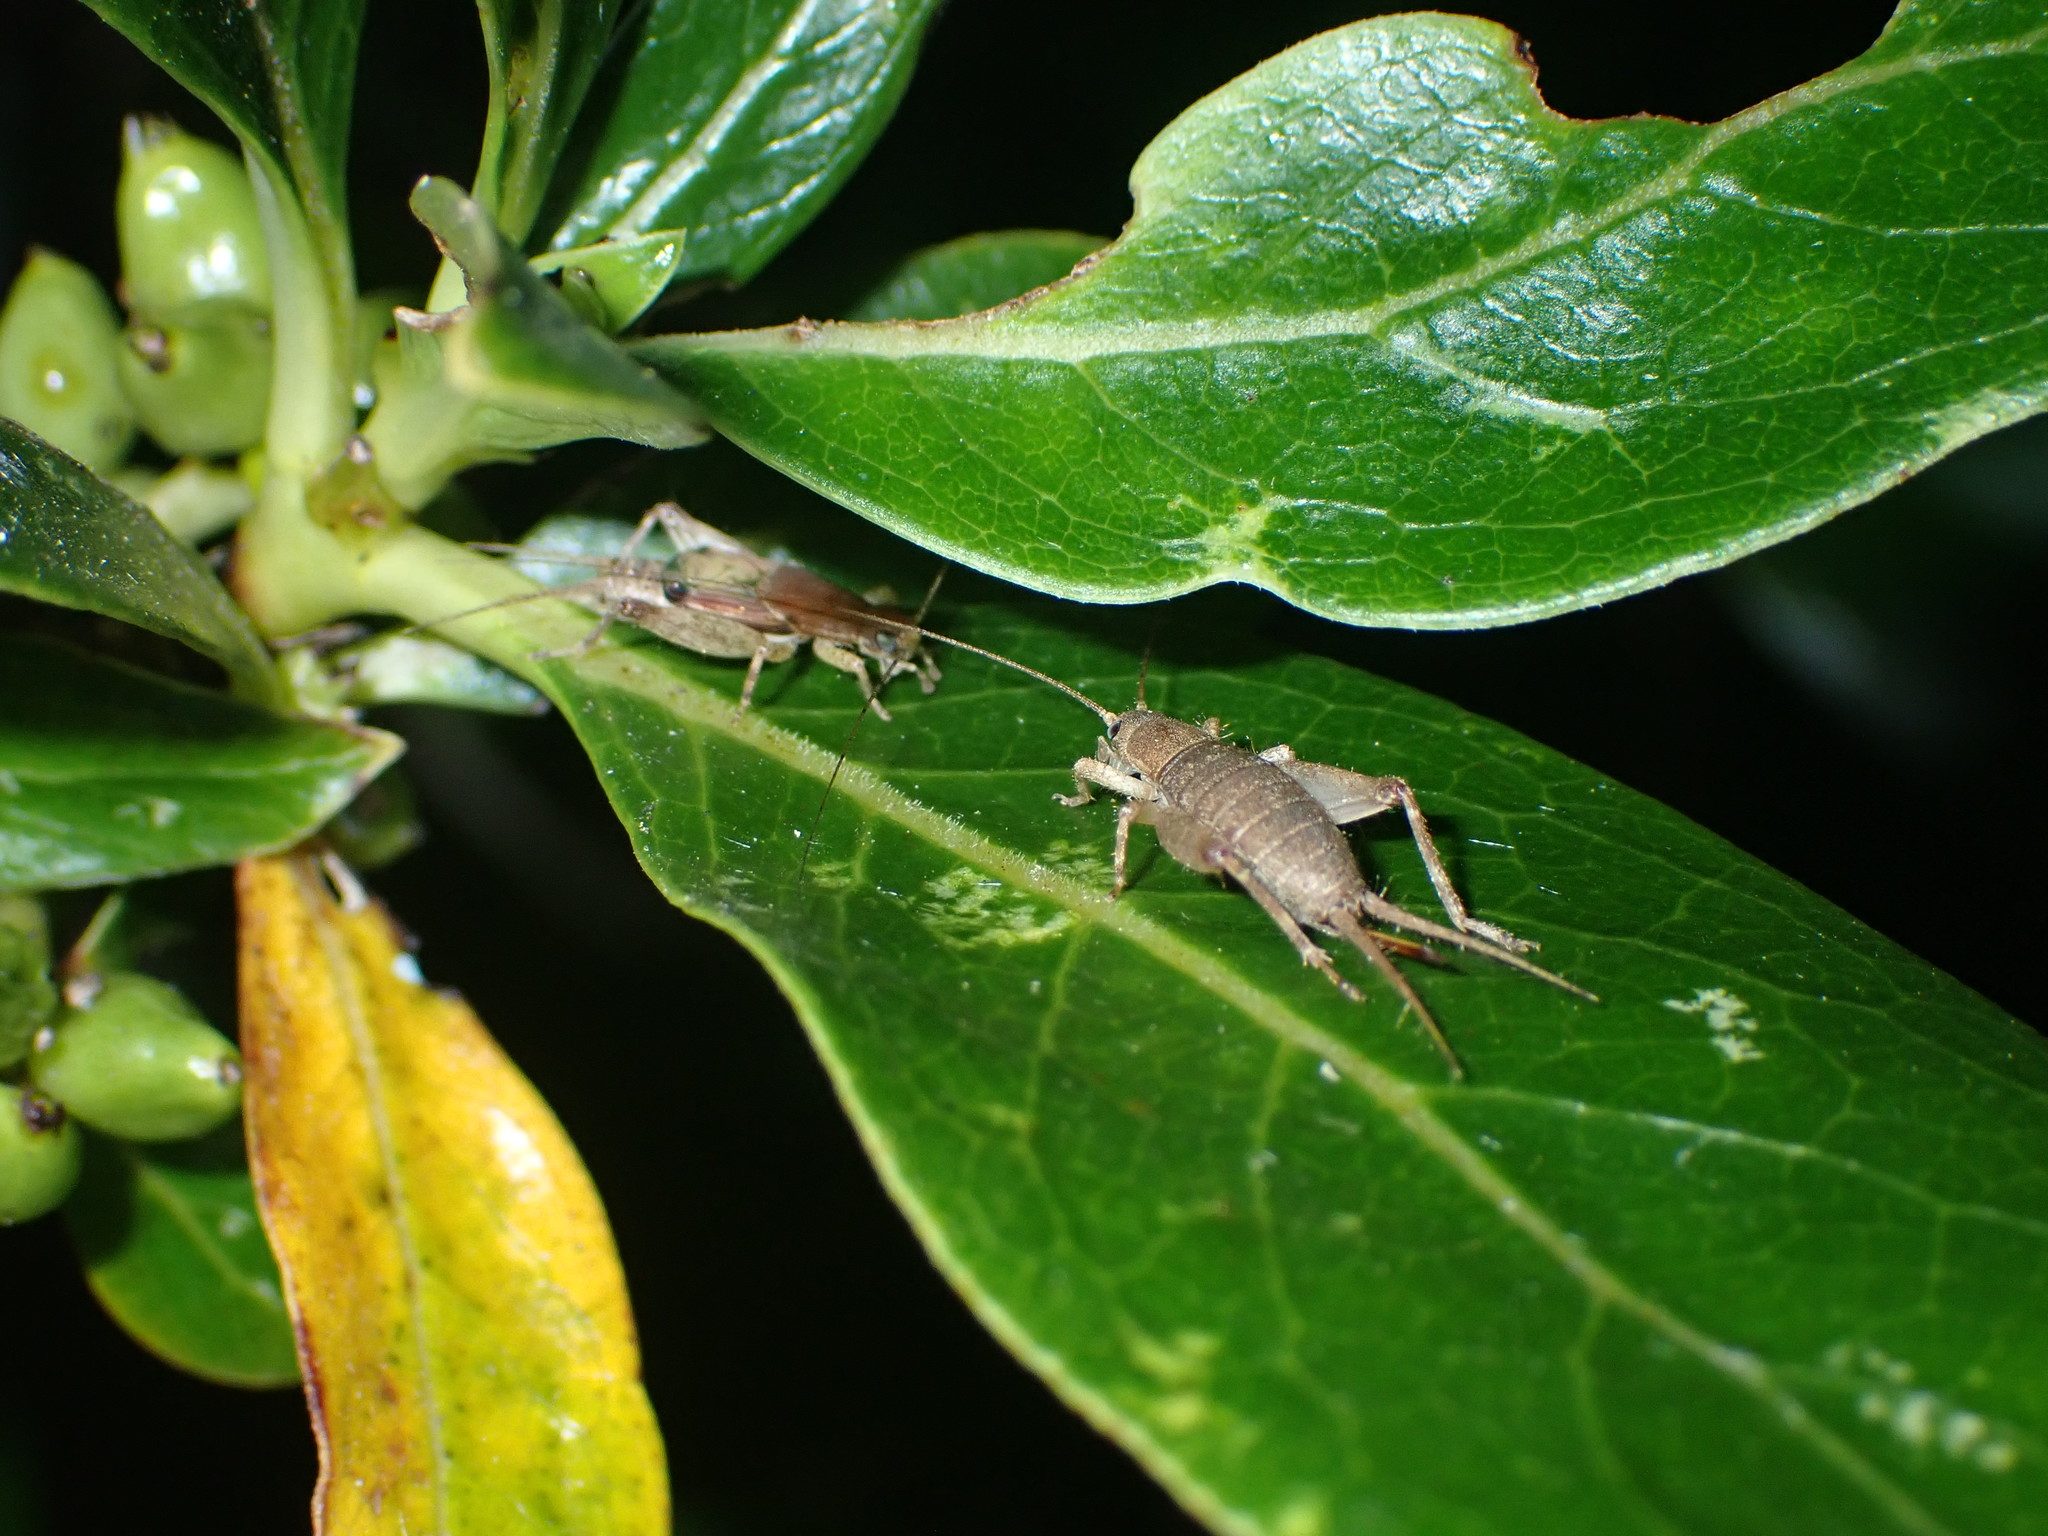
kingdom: Animalia
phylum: Arthropoda
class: Insecta
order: Orthoptera
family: Mogoplistidae
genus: Ornebius
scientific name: Ornebius aperta
